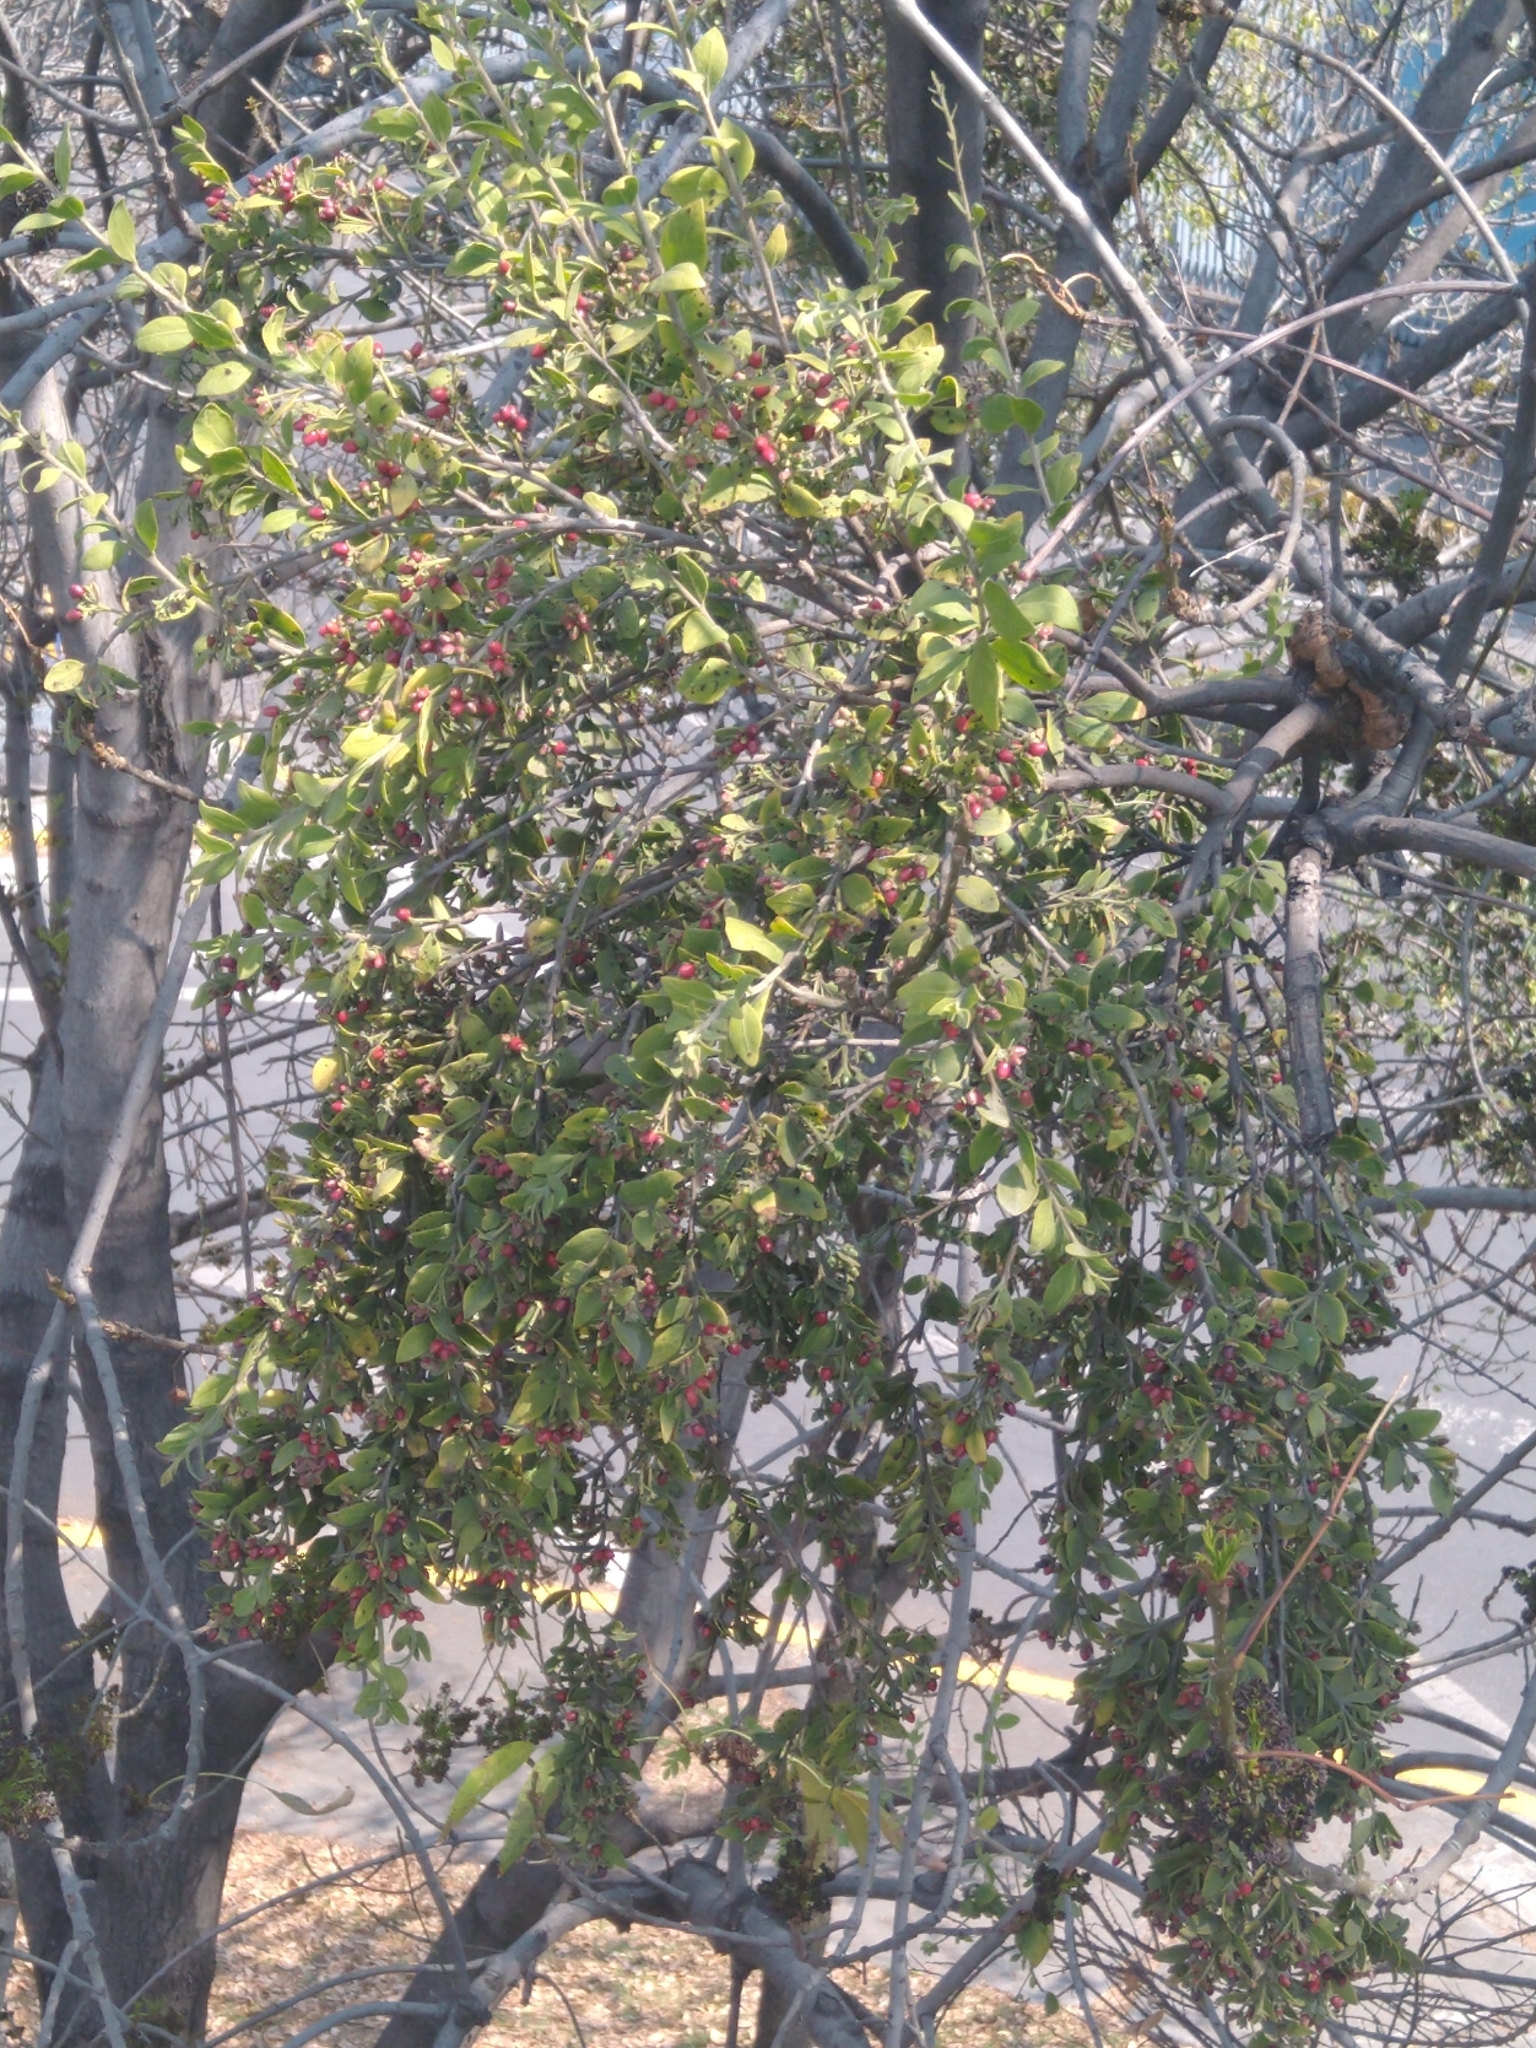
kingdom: Plantae
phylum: Tracheophyta
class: Magnoliopsida
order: Santalales
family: Loranthaceae
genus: Cladocolea
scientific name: Cladocolea loniceroides
